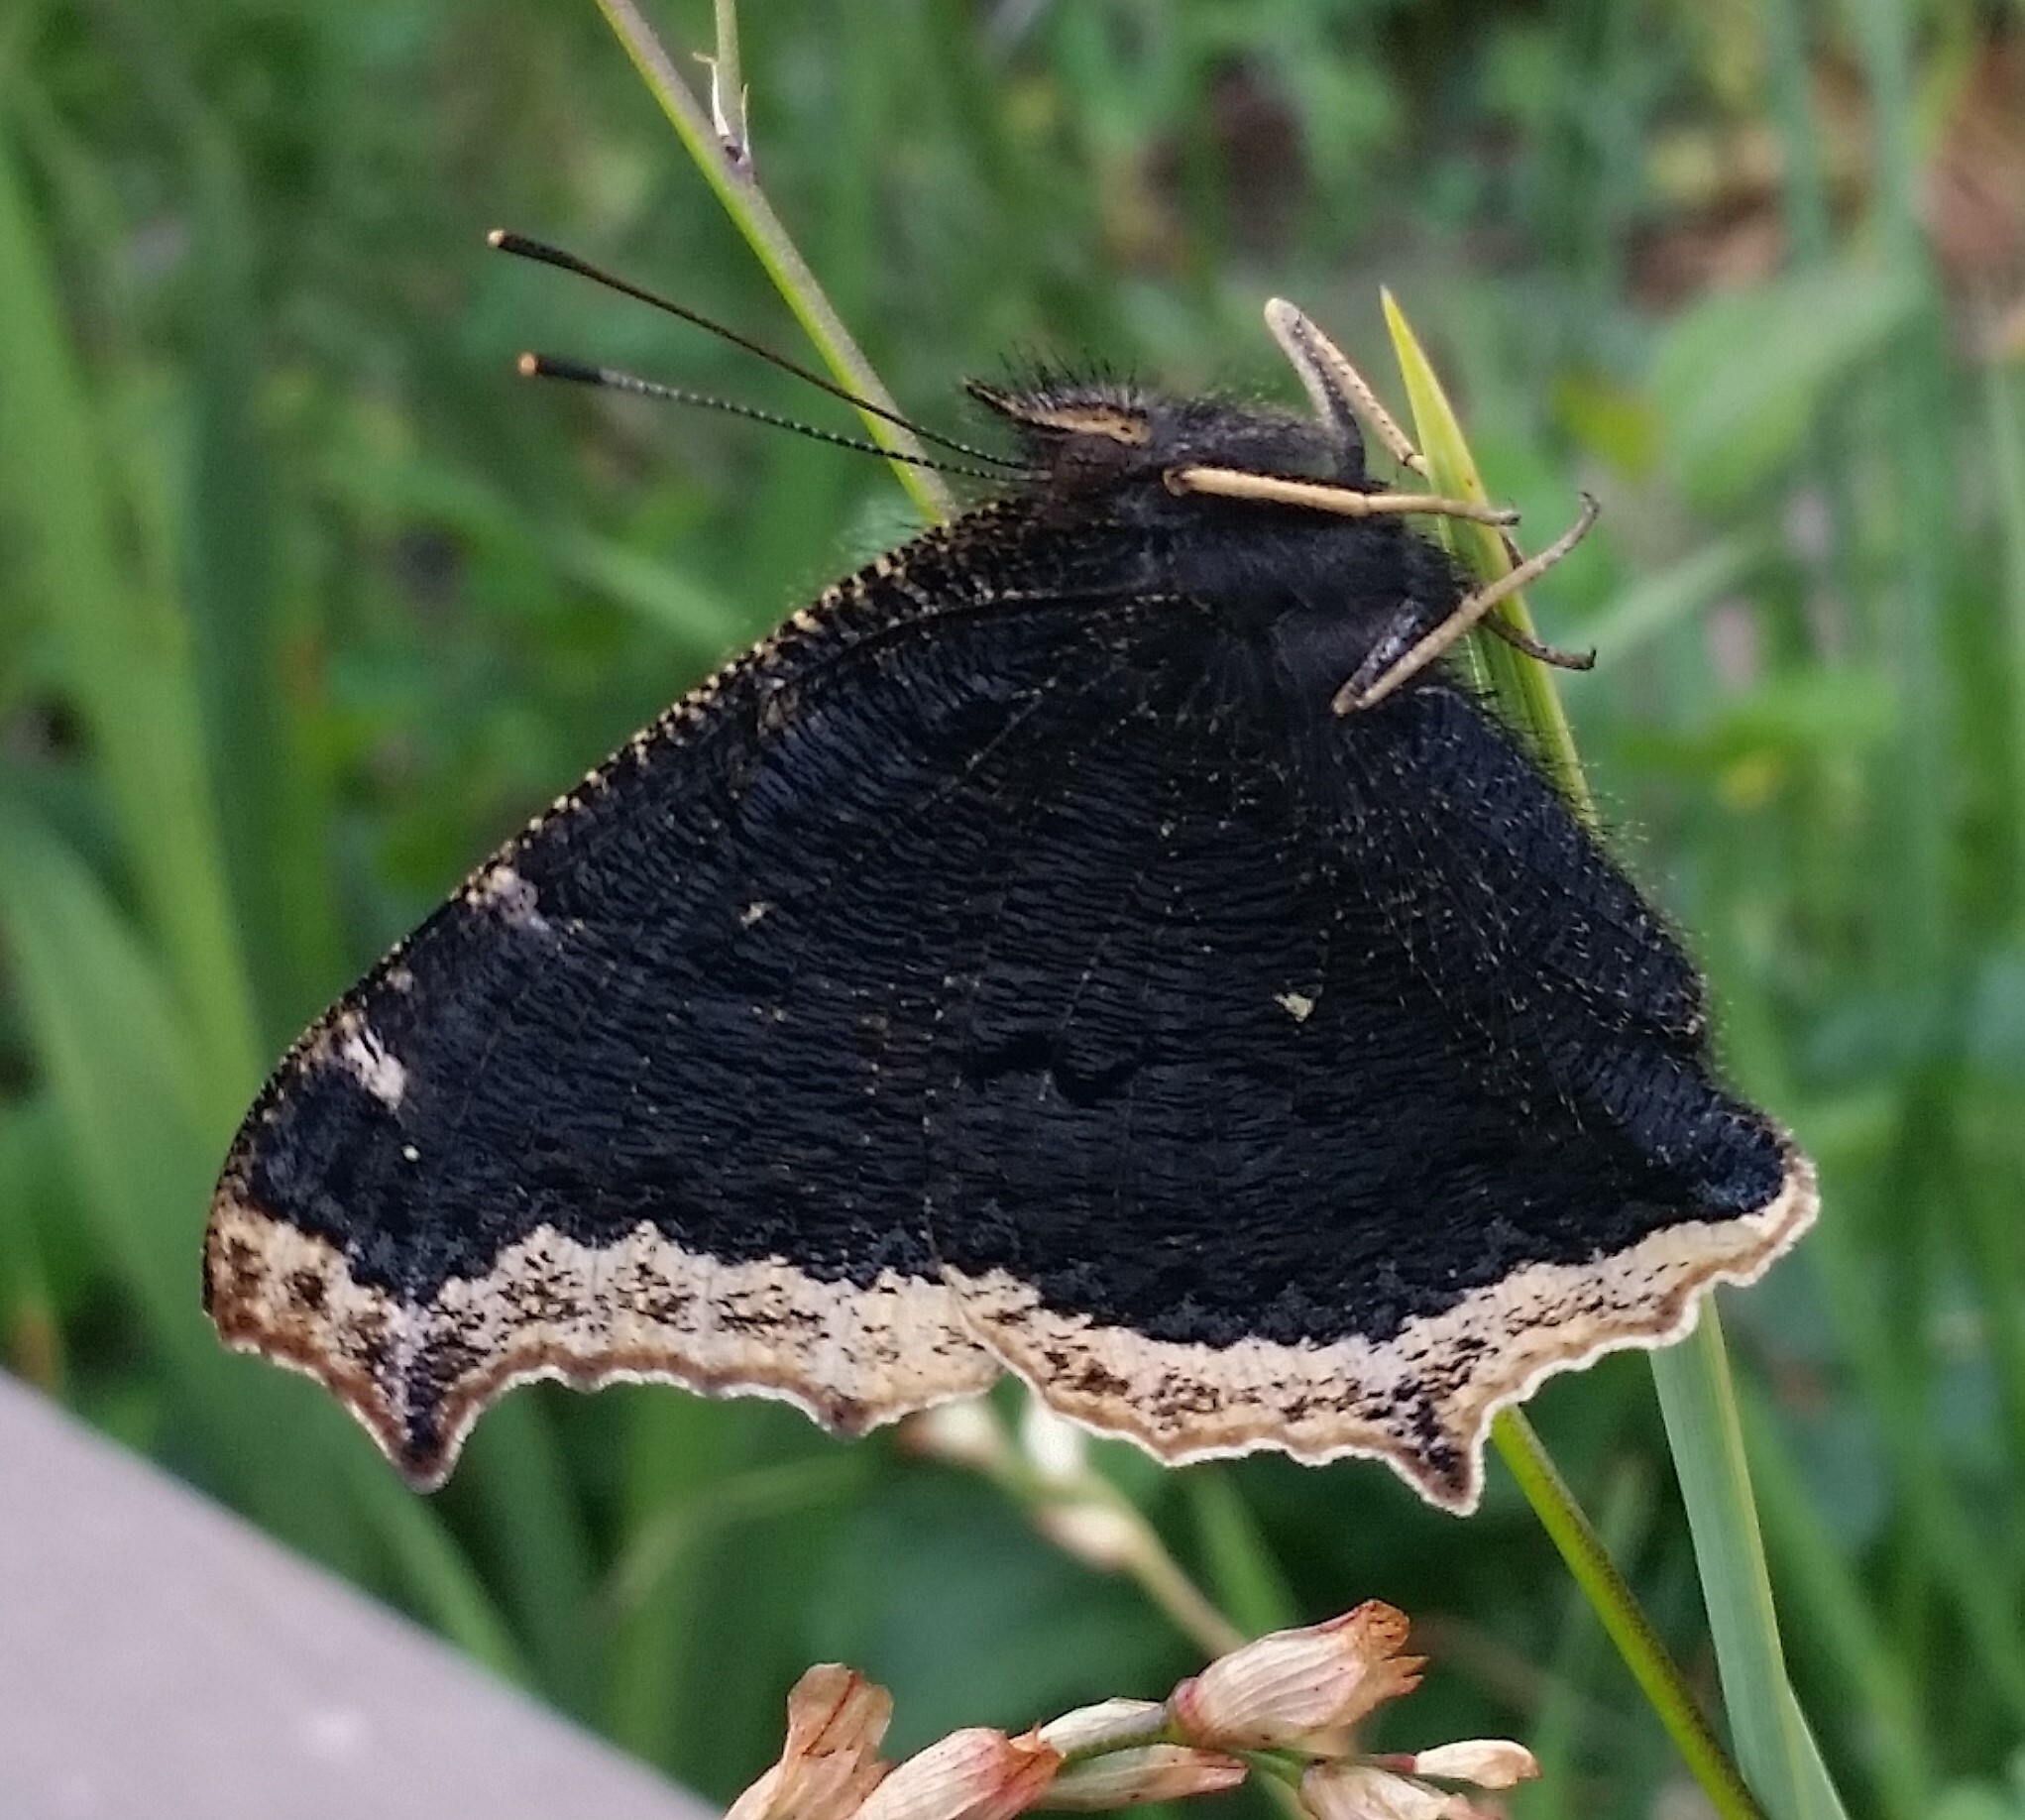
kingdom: Animalia
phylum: Arthropoda
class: Insecta
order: Lepidoptera
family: Nymphalidae
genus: Nymphalis
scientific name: Nymphalis antiopa
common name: Camberwell beauty
